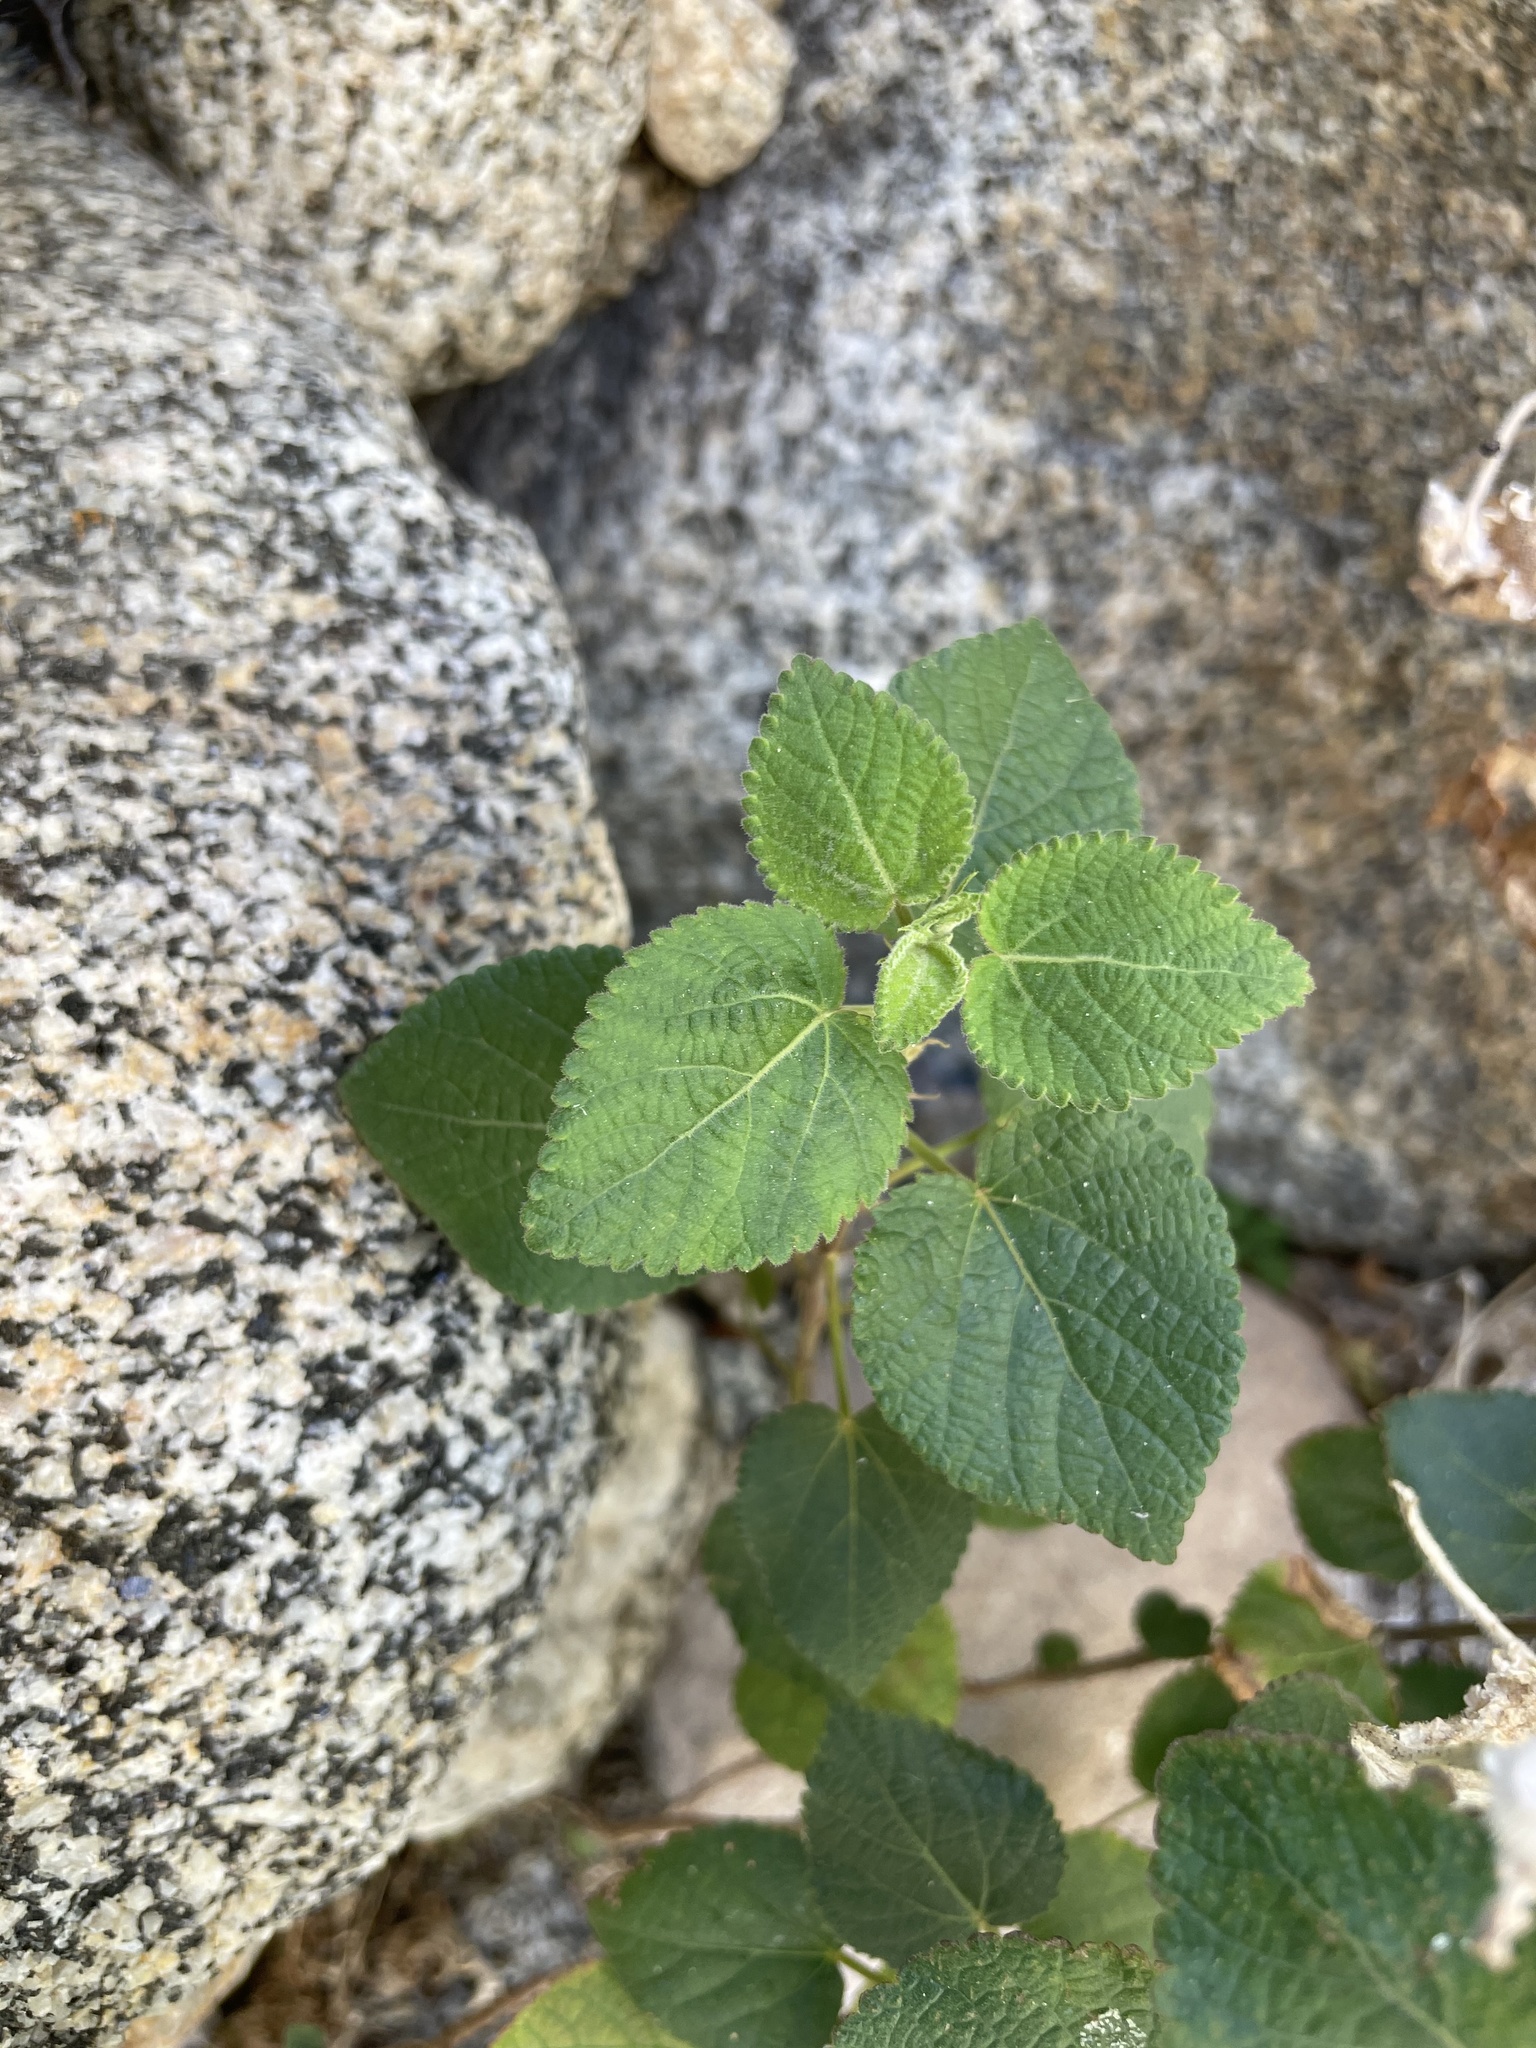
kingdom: Plantae
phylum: Tracheophyta
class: Magnoliopsida
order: Malpighiales
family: Euphorbiaceae
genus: Acalypha
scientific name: Acalypha californica
